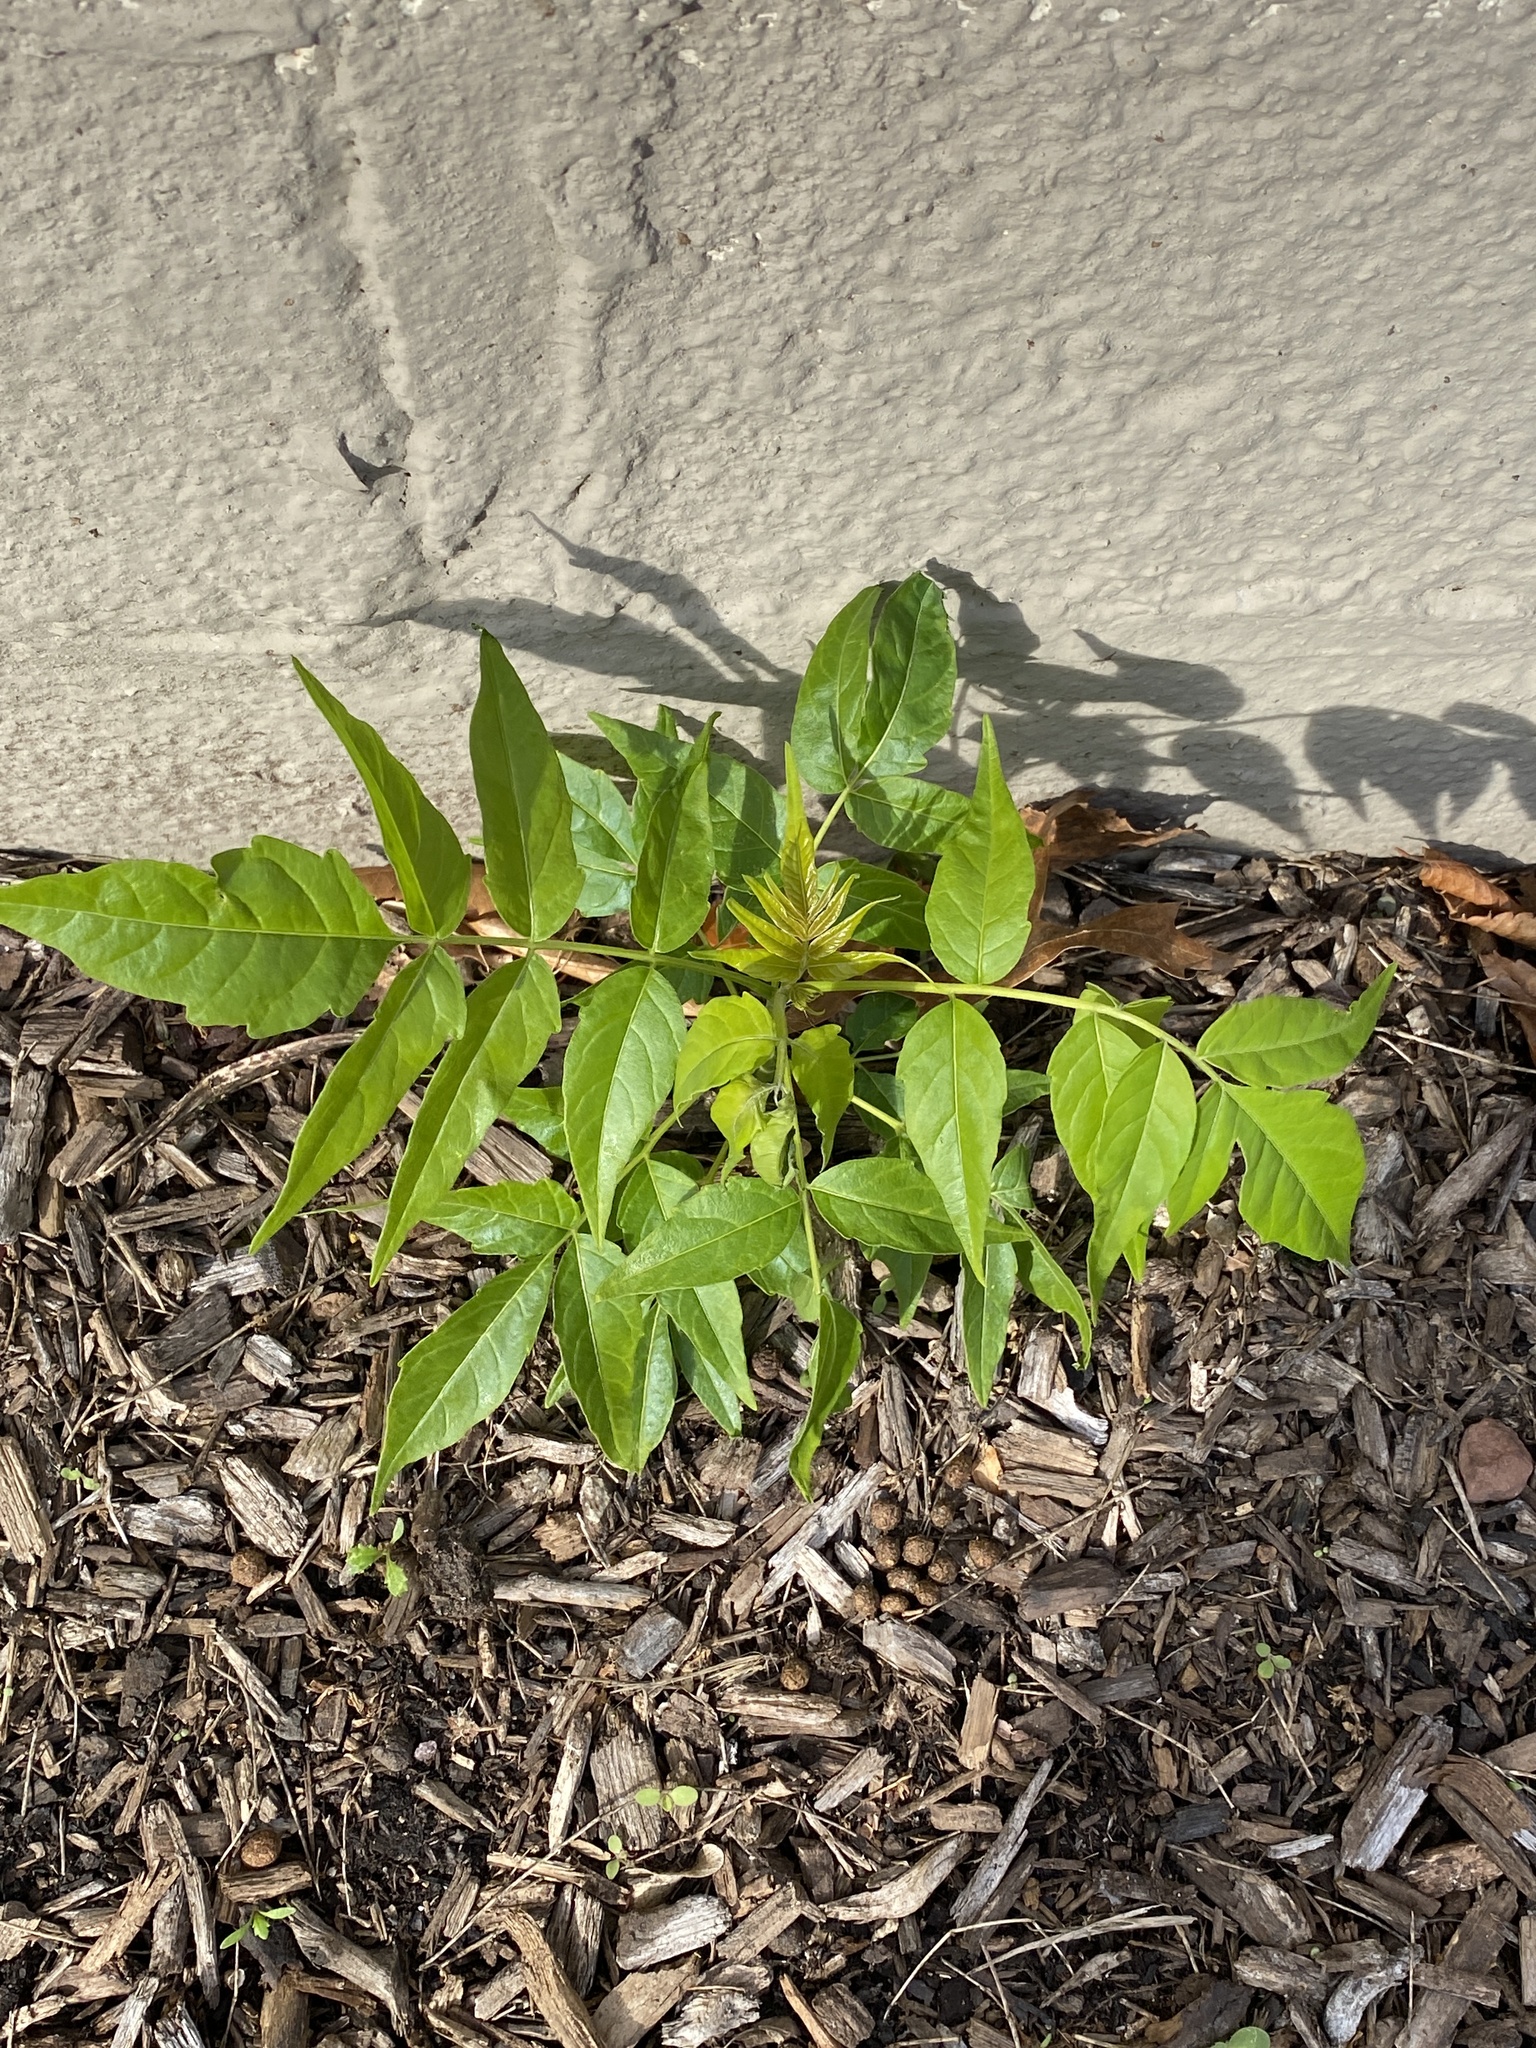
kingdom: Plantae
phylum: Tracheophyta
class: Magnoliopsida
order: Sapindales
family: Simaroubaceae
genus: Ailanthus
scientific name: Ailanthus altissima
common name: Tree-of-heaven
